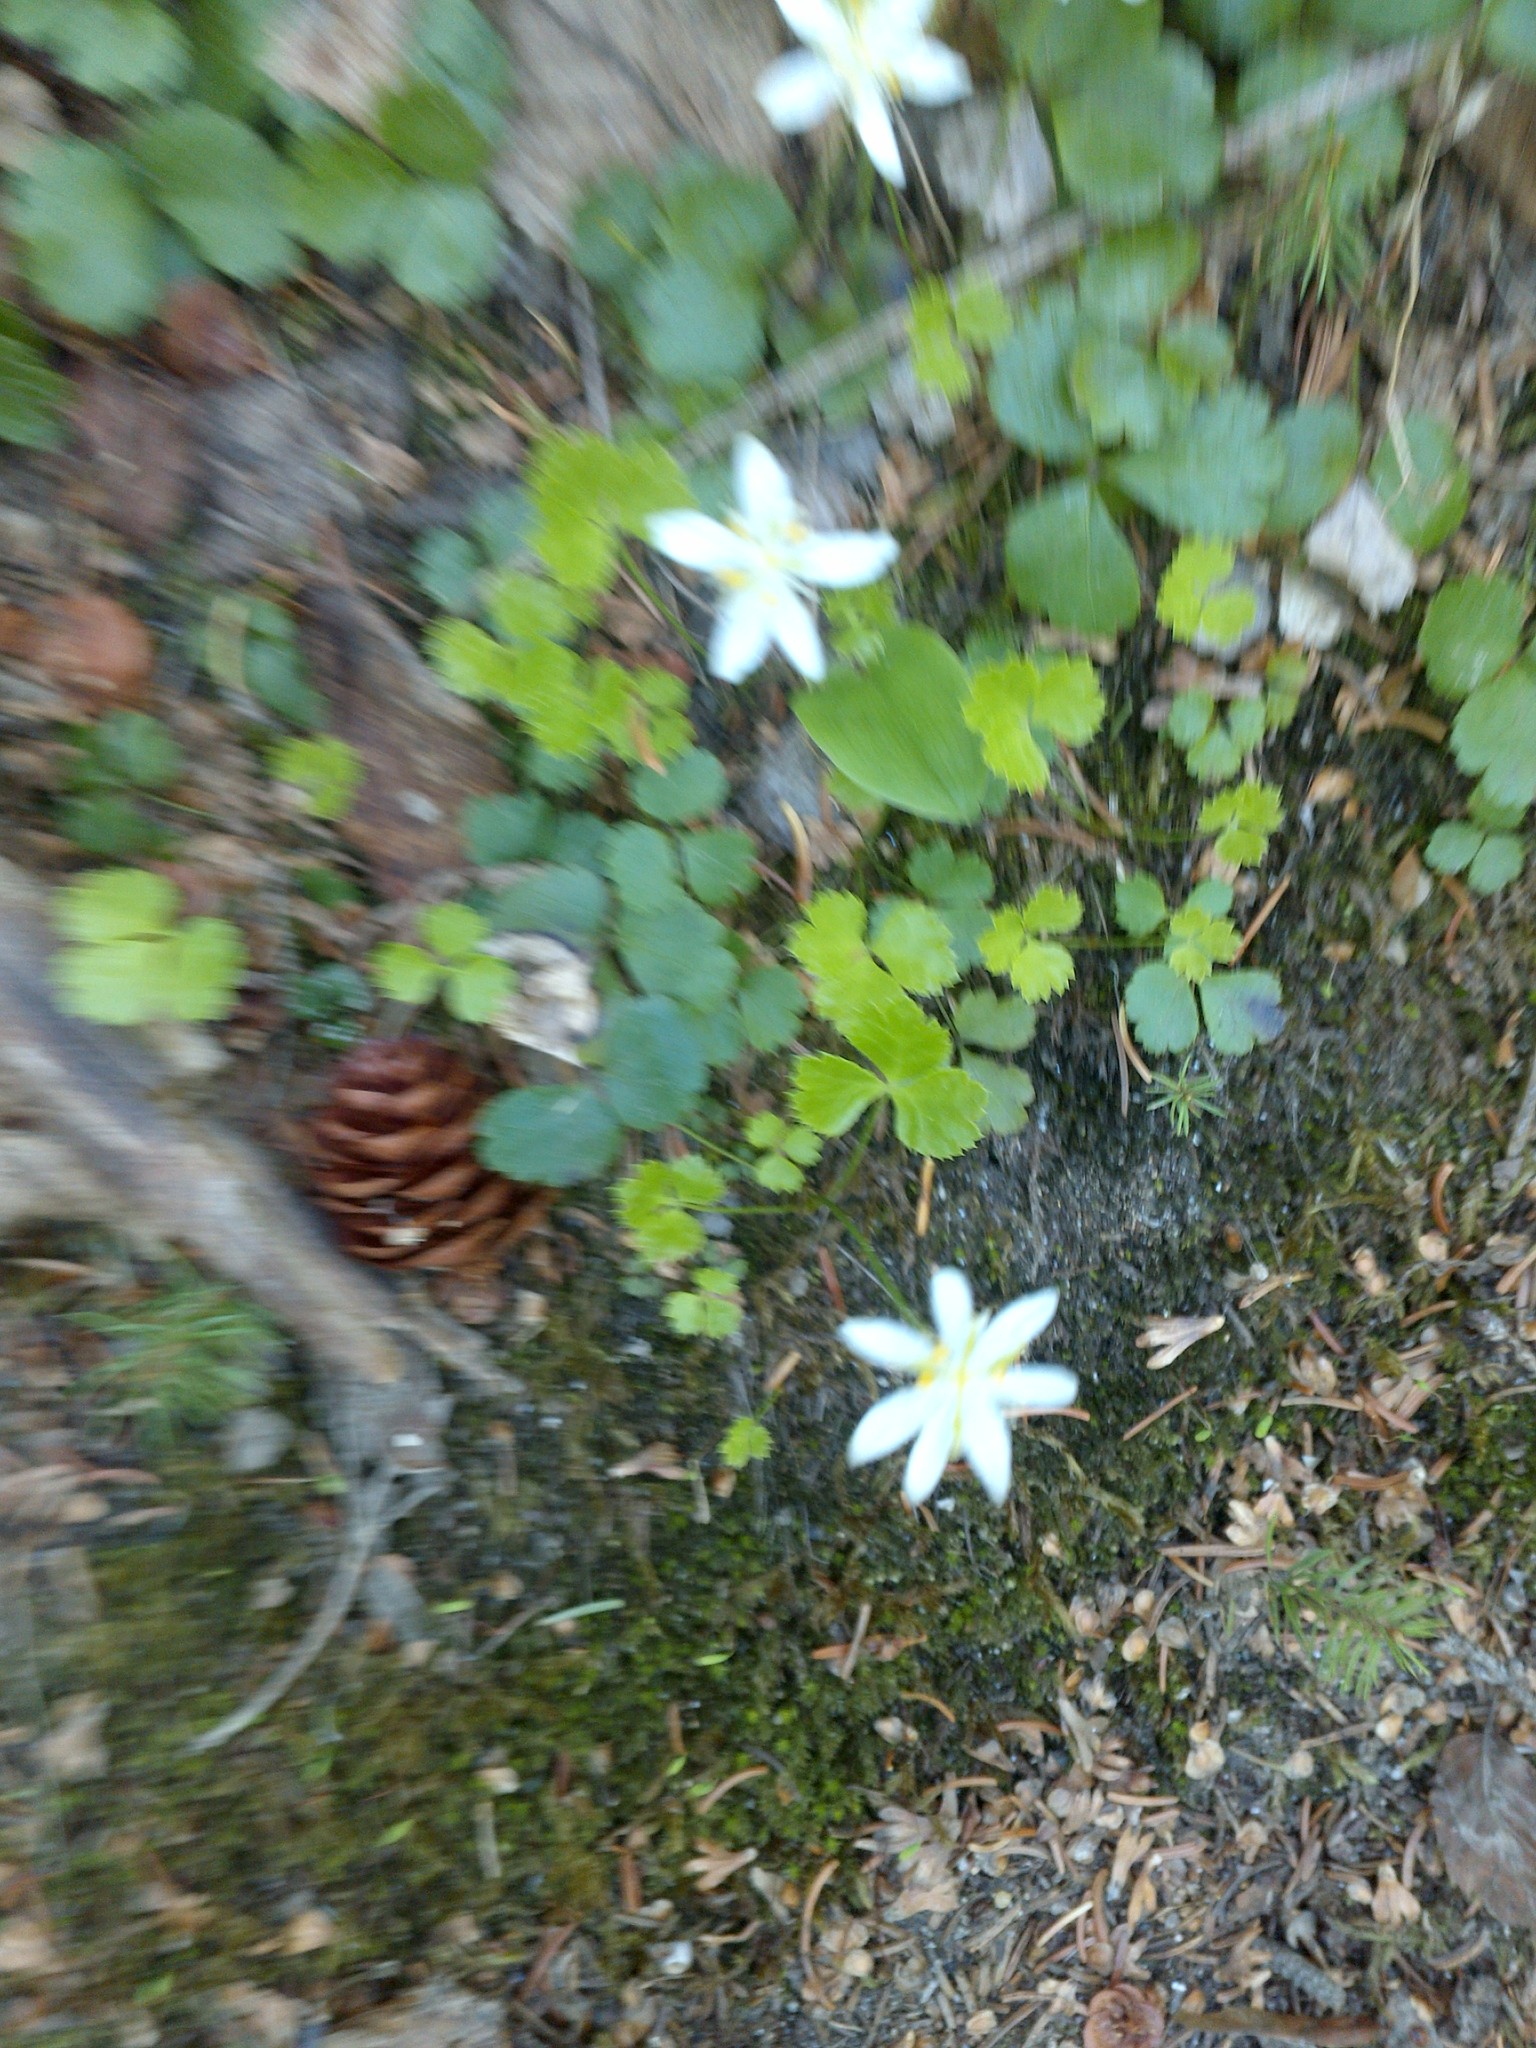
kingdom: Plantae
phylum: Tracheophyta
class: Magnoliopsida
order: Ranunculales
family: Ranunculaceae
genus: Coptis
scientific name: Coptis trifolia
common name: Canker-root
